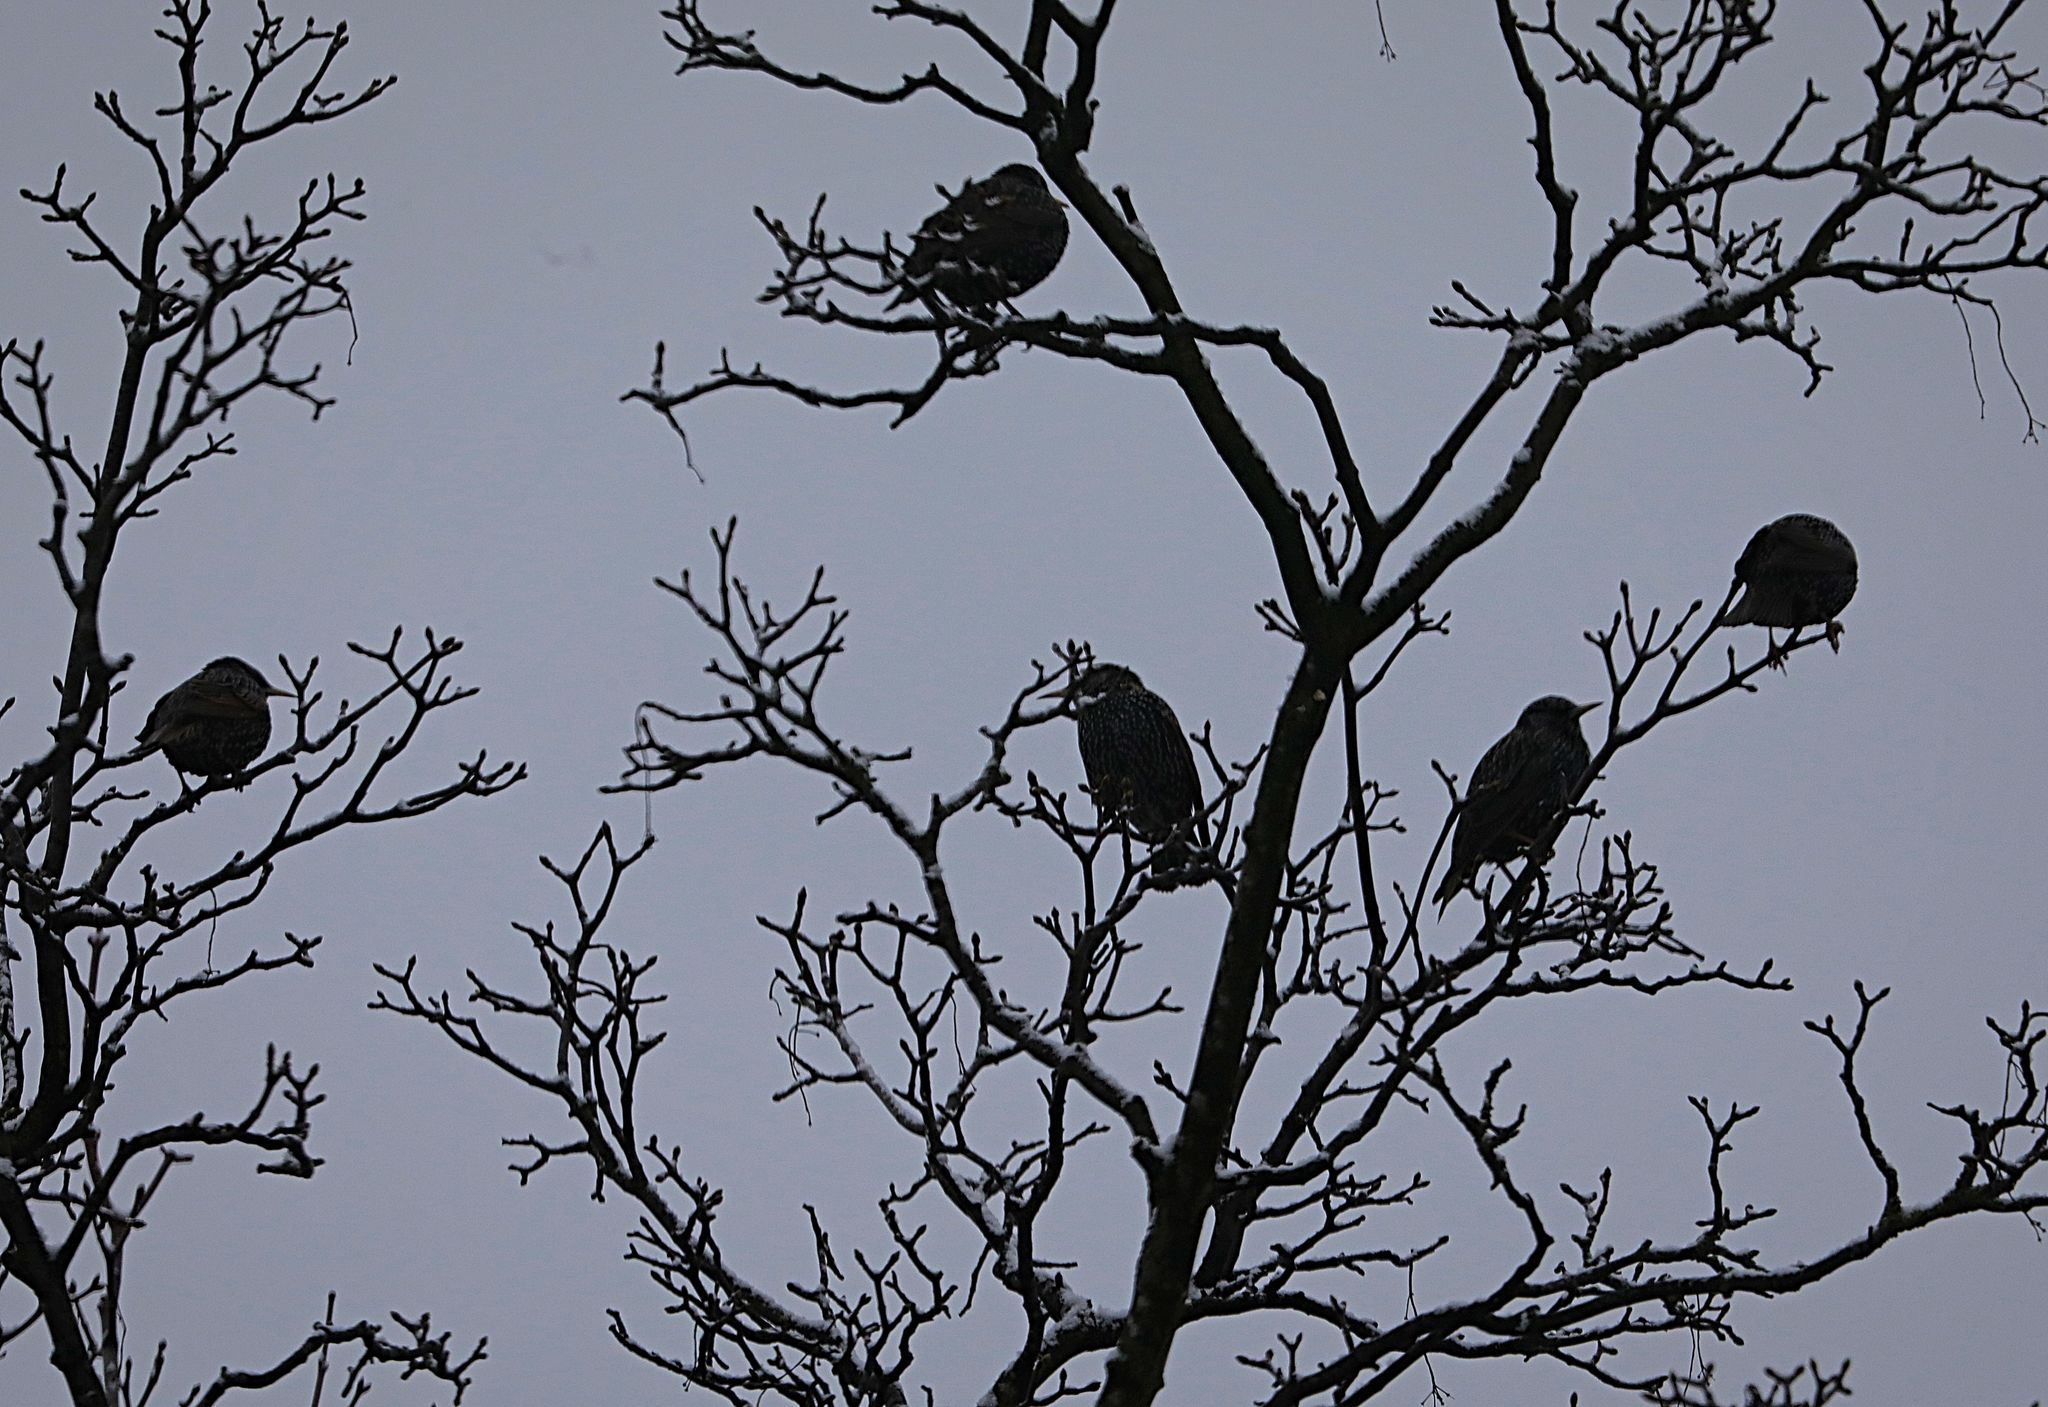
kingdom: Animalia
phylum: Chordata
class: Aves
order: Passeriformes
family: Sturnidae
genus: Sturnus
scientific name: Sturnus vulgaris
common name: Common starling
